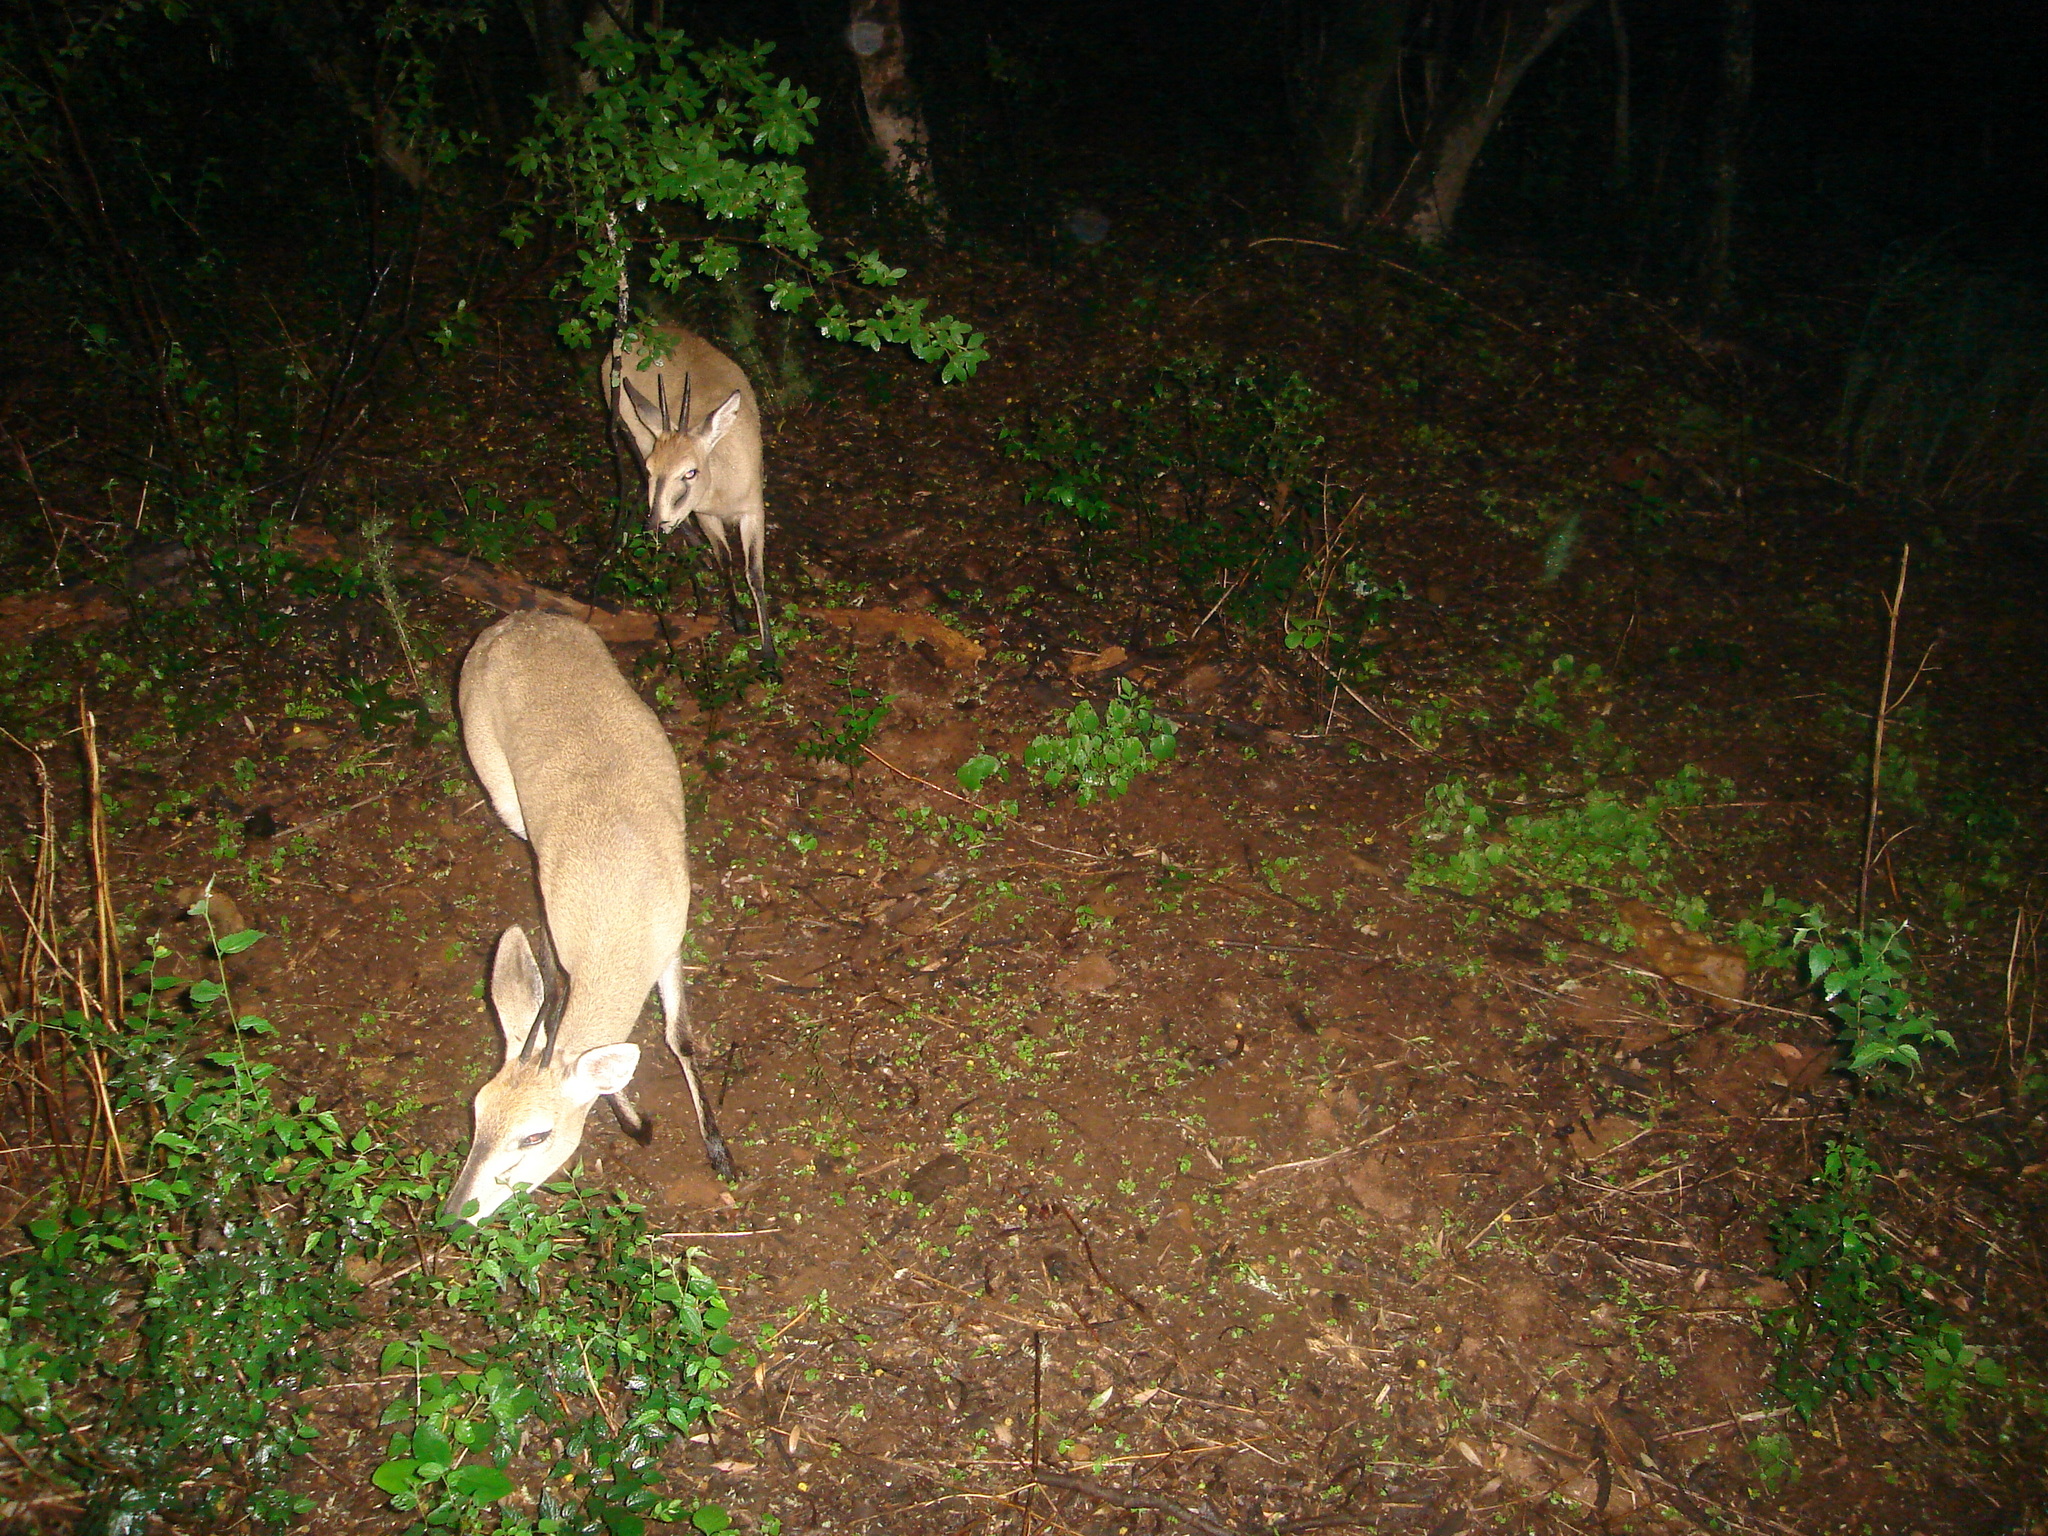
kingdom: Animalia
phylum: Chordata
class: Mammalia
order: Artiodactyla
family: Bovidae
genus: Sylvicapra
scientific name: Sylvicapra grimmia
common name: Bush duiker
